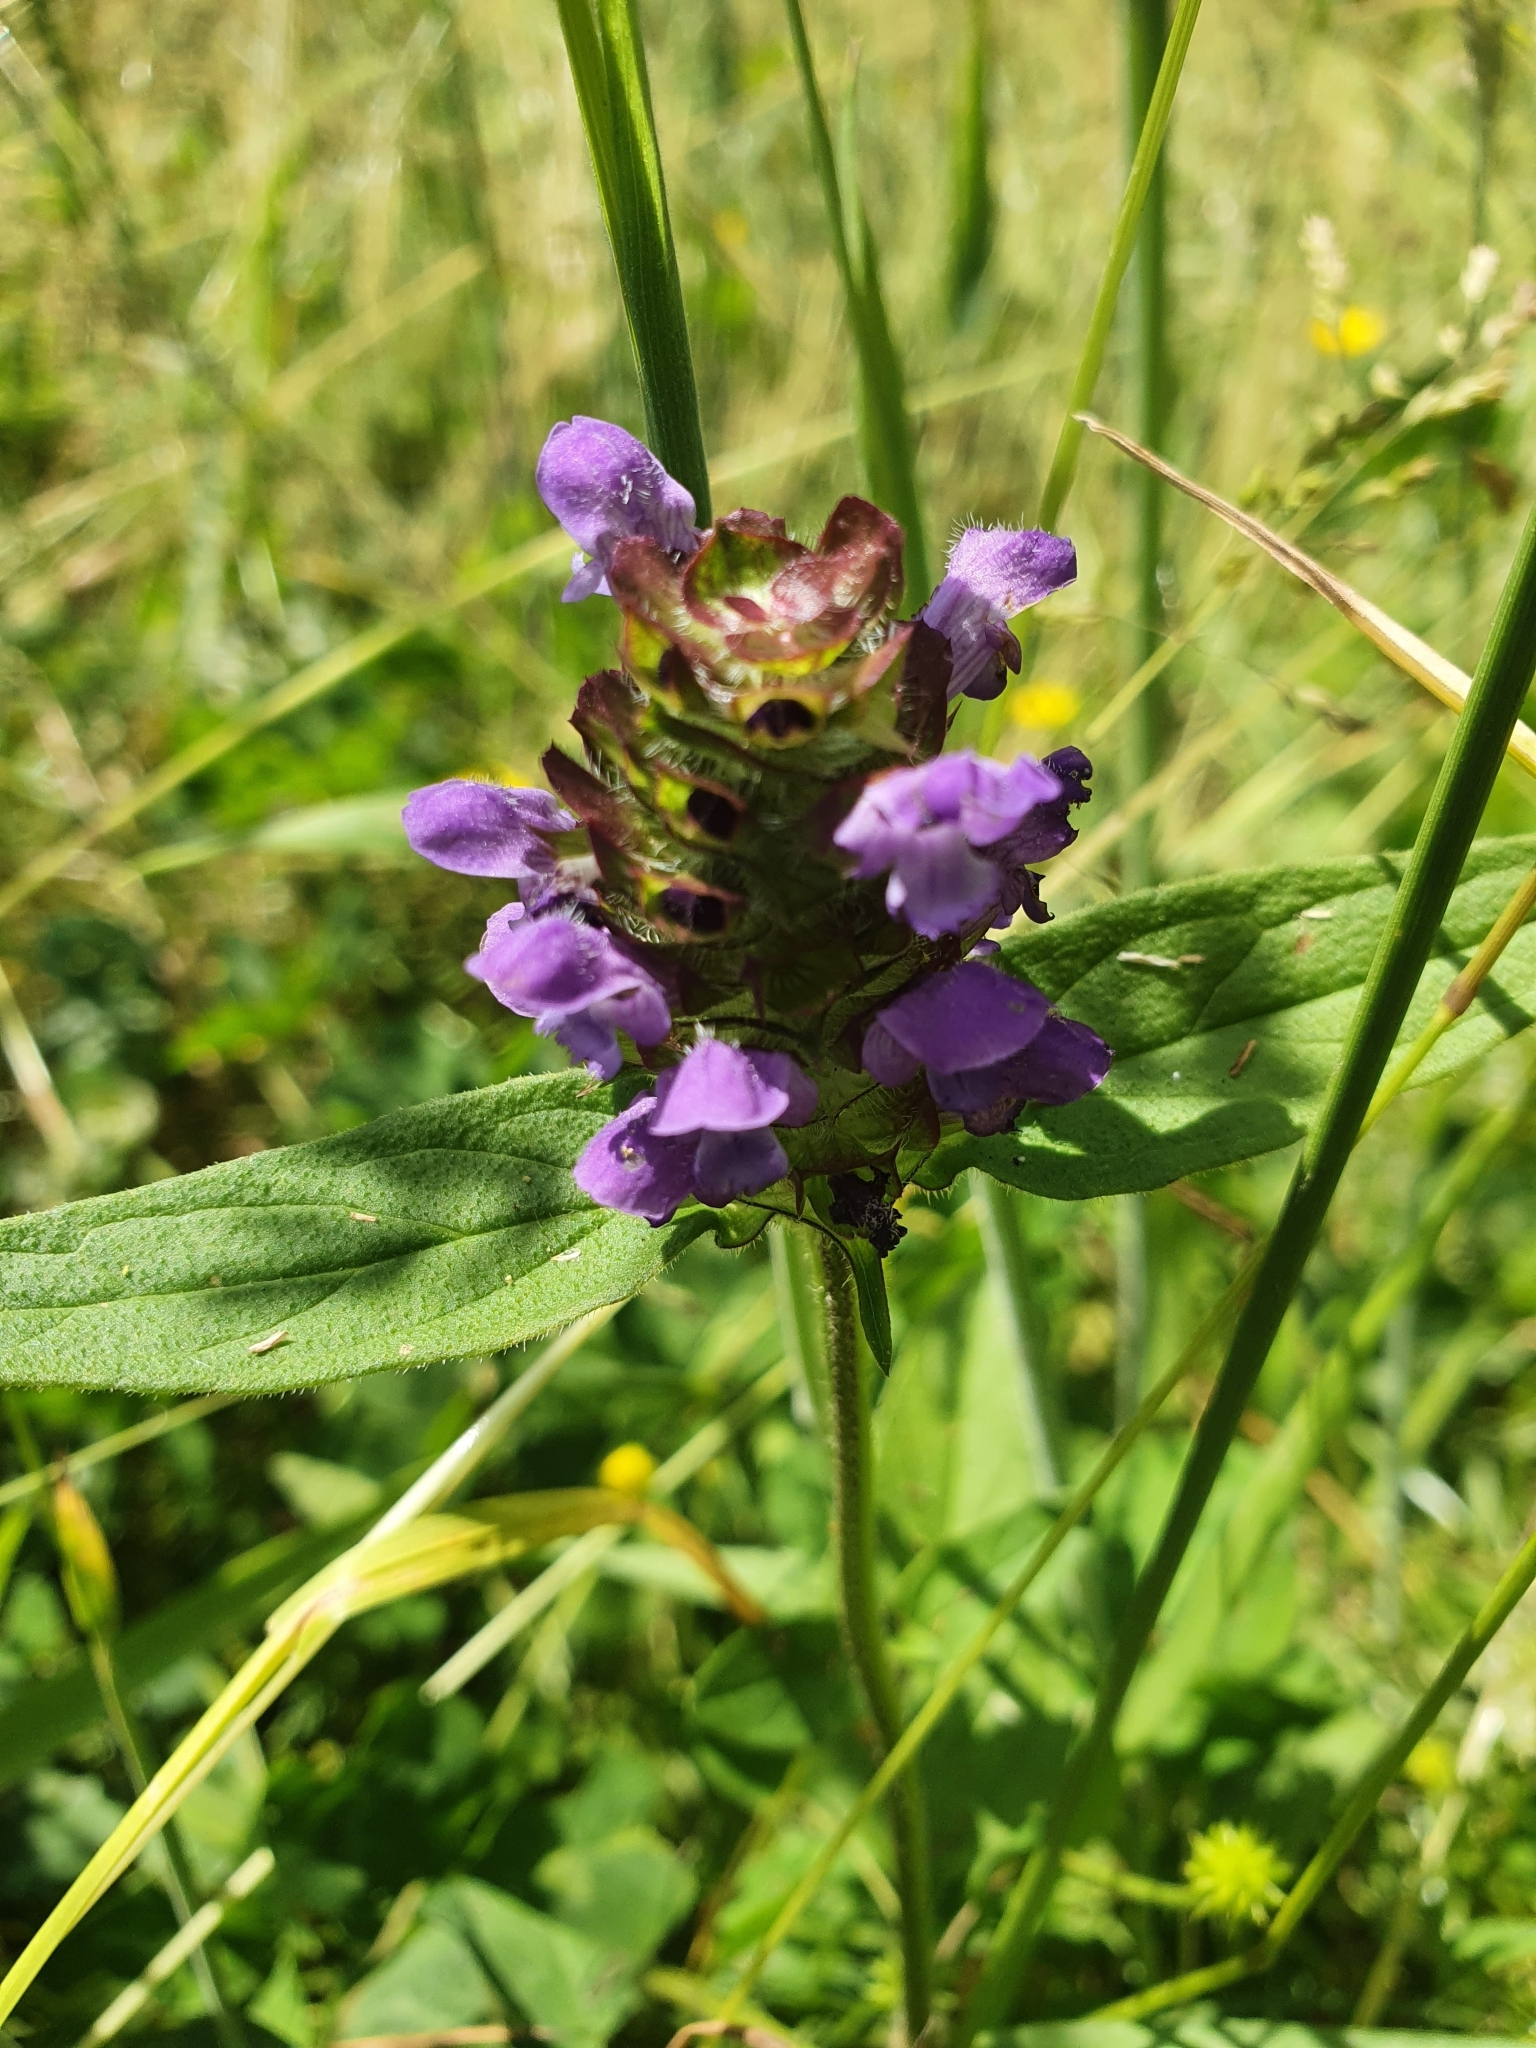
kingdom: Plantae
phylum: Tracheophyta
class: Magnoliopsida
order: Lamiales
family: Lamiaceae
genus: Prunella
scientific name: Prunella vulgaris
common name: Heal-all
